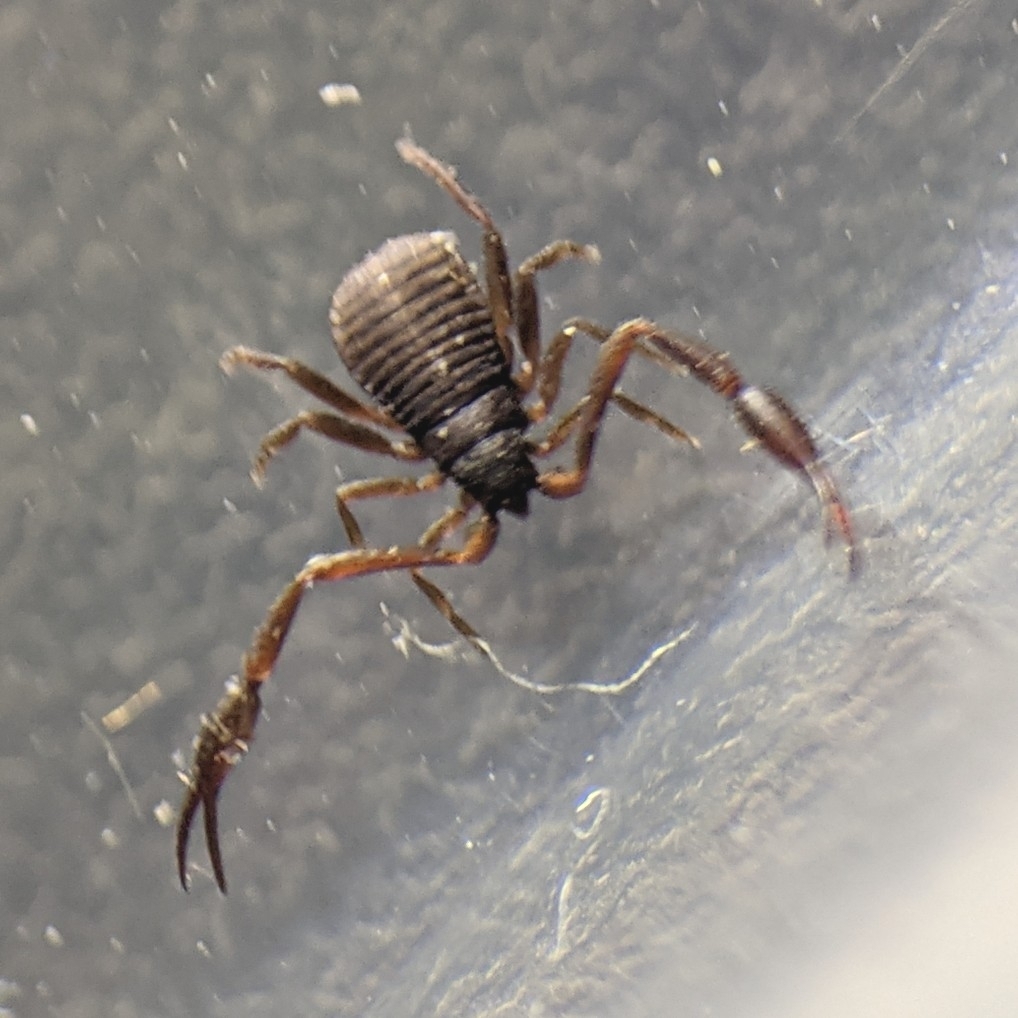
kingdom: Animalia
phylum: Arthropoda
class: Arachnida
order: Pseudoscorpiones
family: Cheliferidae
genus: Chelifer
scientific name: Chelifer cancroides
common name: House false-scorpion
